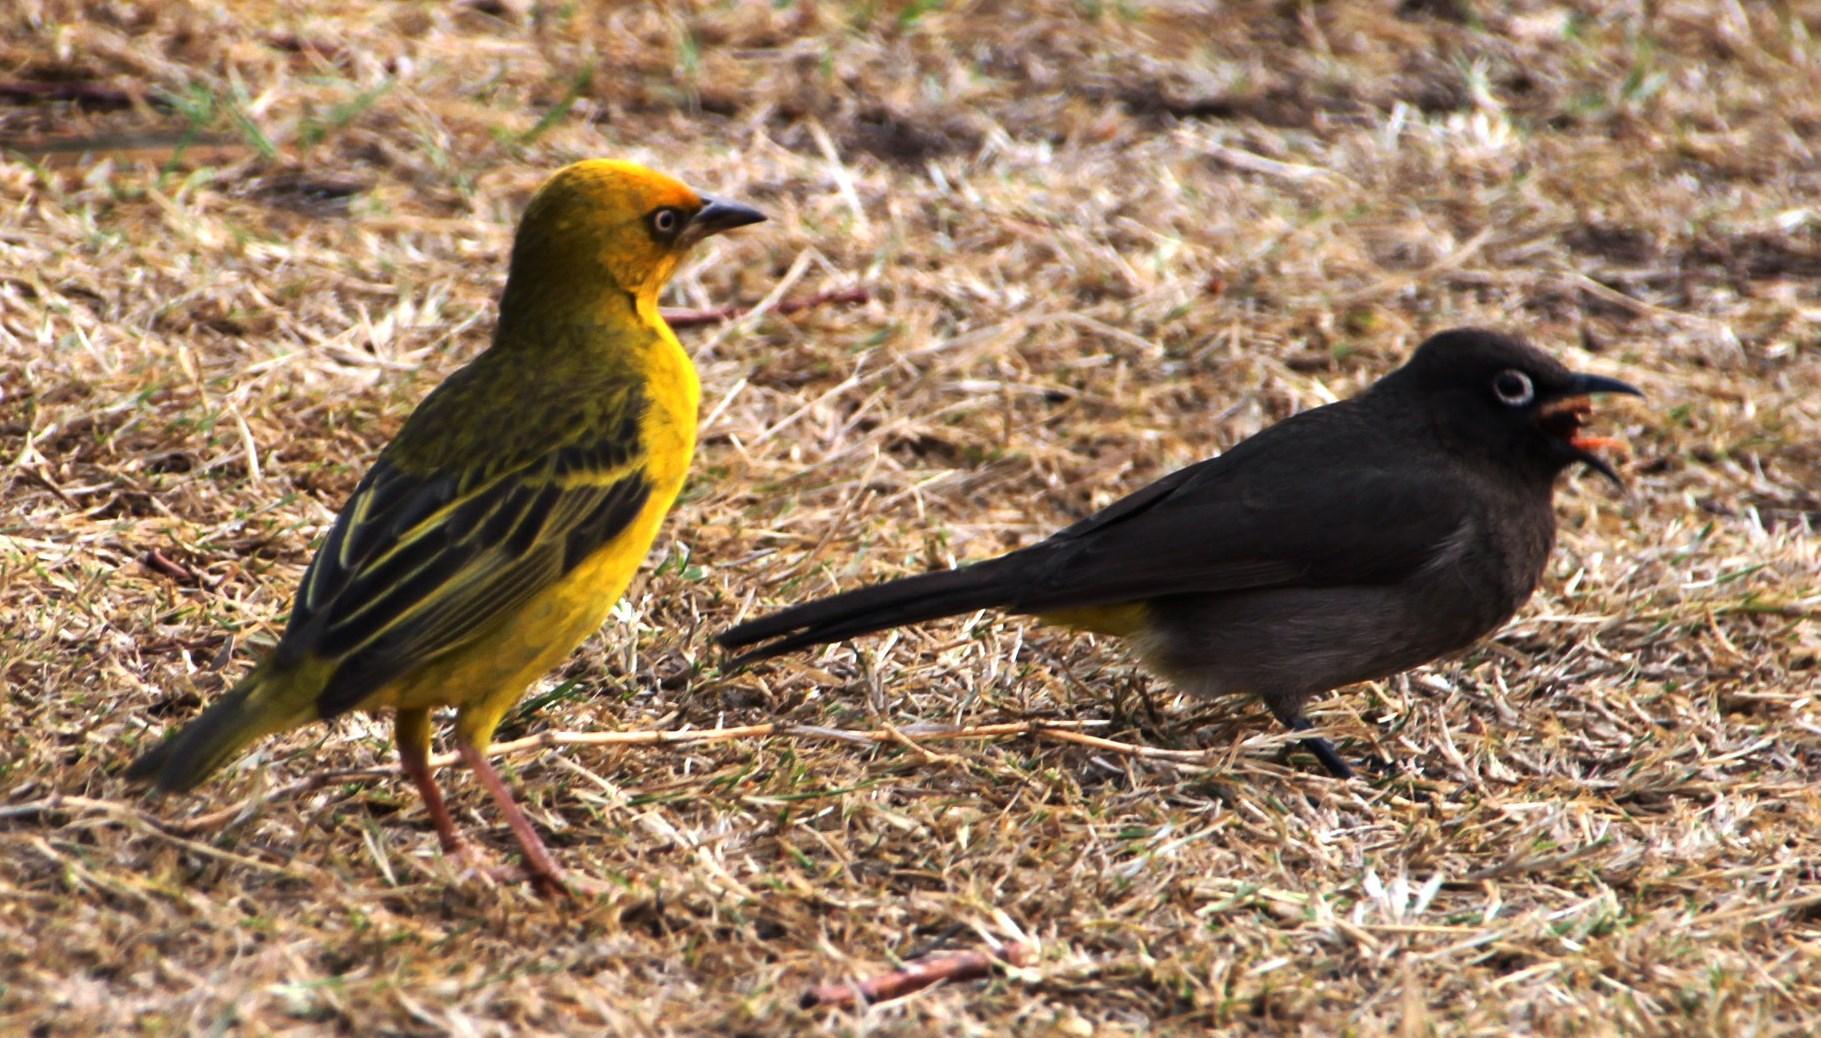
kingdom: Animalia
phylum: Chordata
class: Aves
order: Passeriformes
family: Ploceidae
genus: Ploceus
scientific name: Ploceus capensis
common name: Cape weaver
